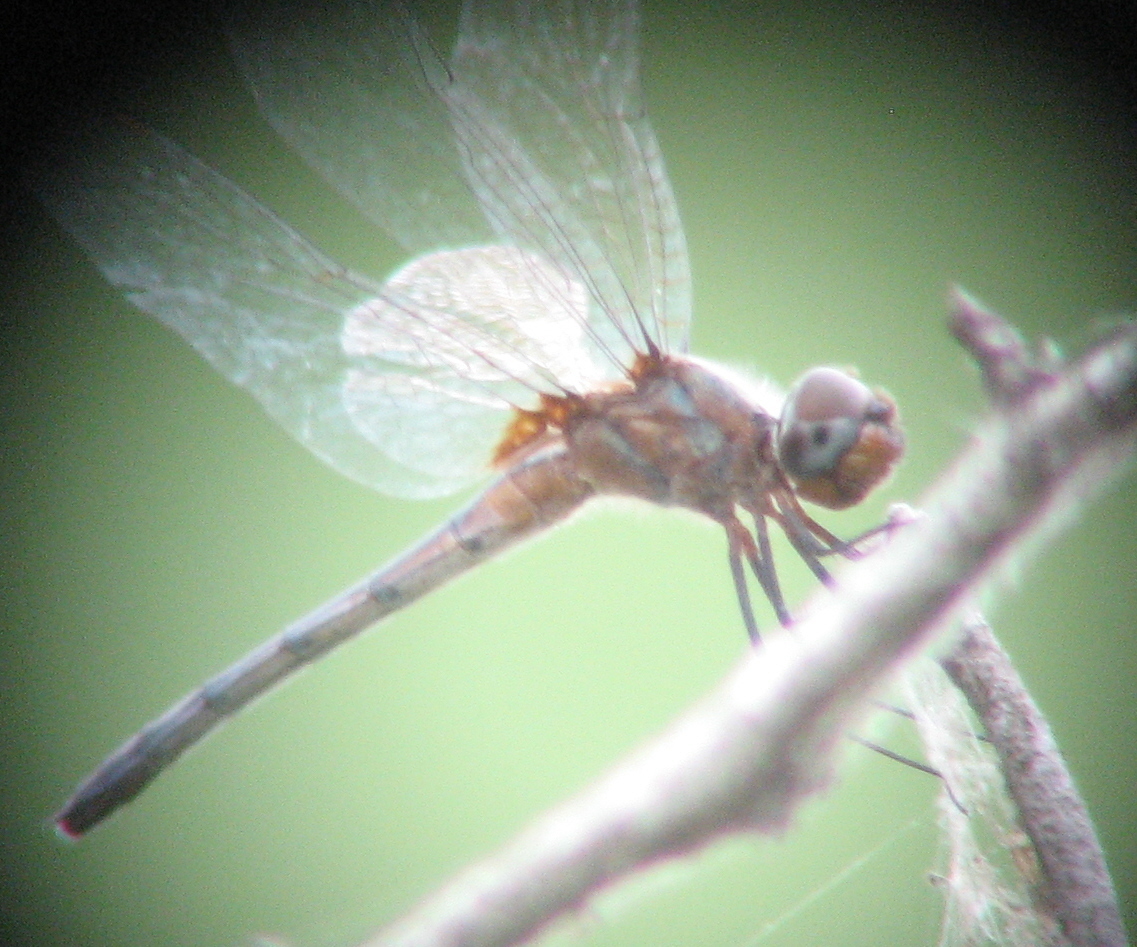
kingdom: Animalia
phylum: Arthropoda
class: Insecta
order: Odonata
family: Libellulidae
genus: Idiataphe
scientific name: Idiataphe cubensis
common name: Metallic pennant
